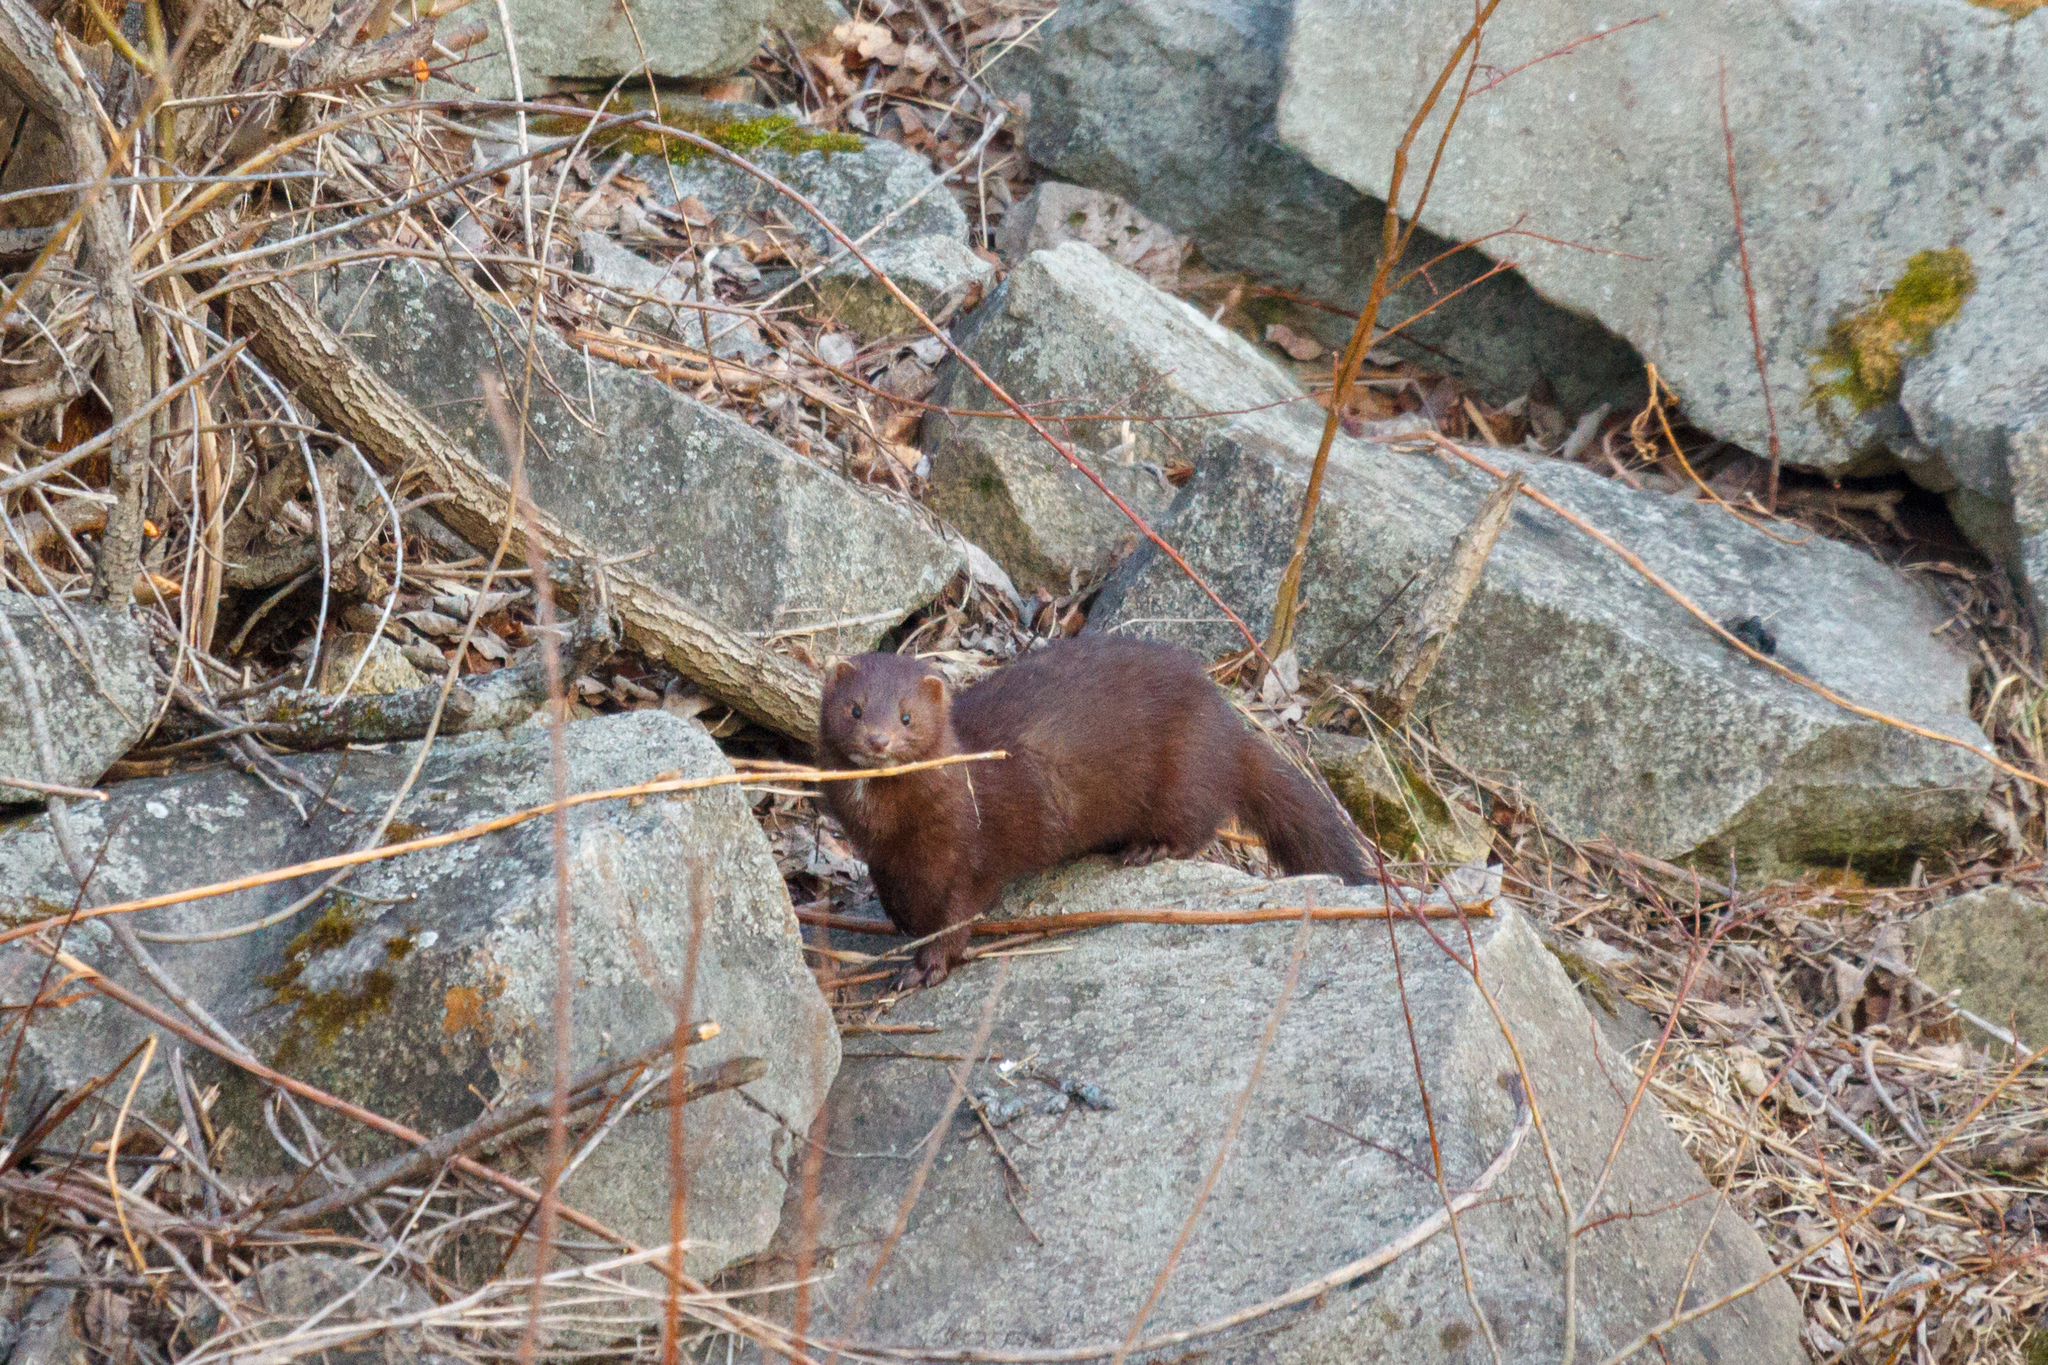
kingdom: Animalia
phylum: Chordata
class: Mammalia
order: Carnivora
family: Mustelidae
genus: Mustela
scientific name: Mustela
